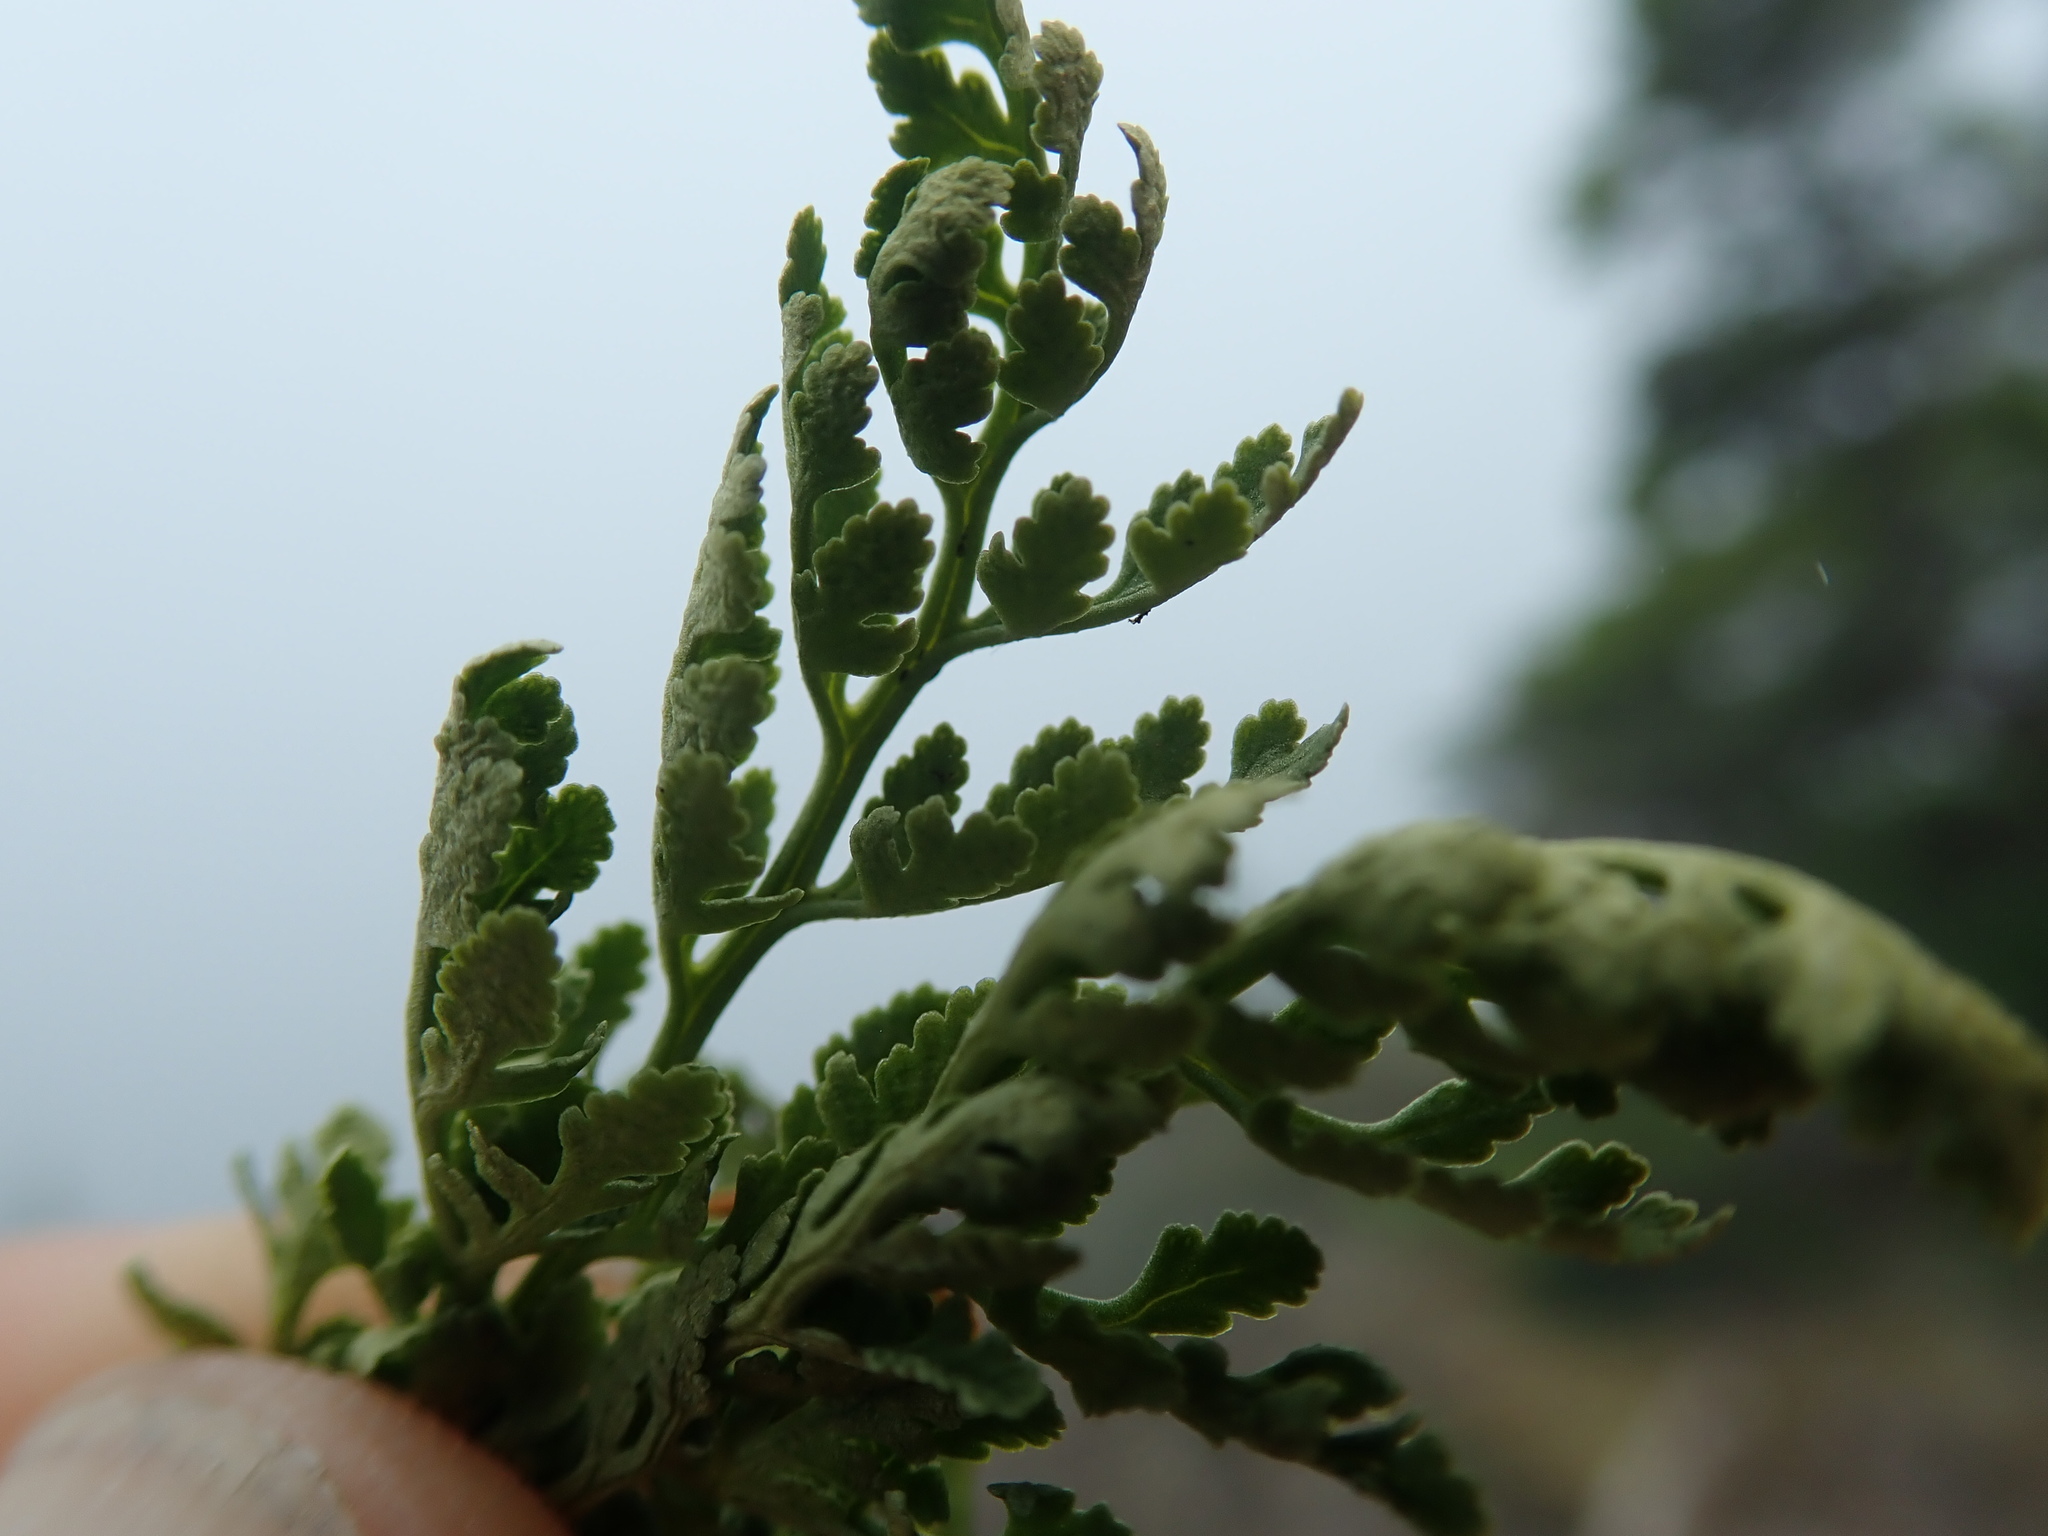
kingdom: Plantae
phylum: Tracheophyta
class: Polypodiopsida
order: Polypodiales
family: Pteridaceae
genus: Cryptogramma
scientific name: Cryptogramma acrostichoides
